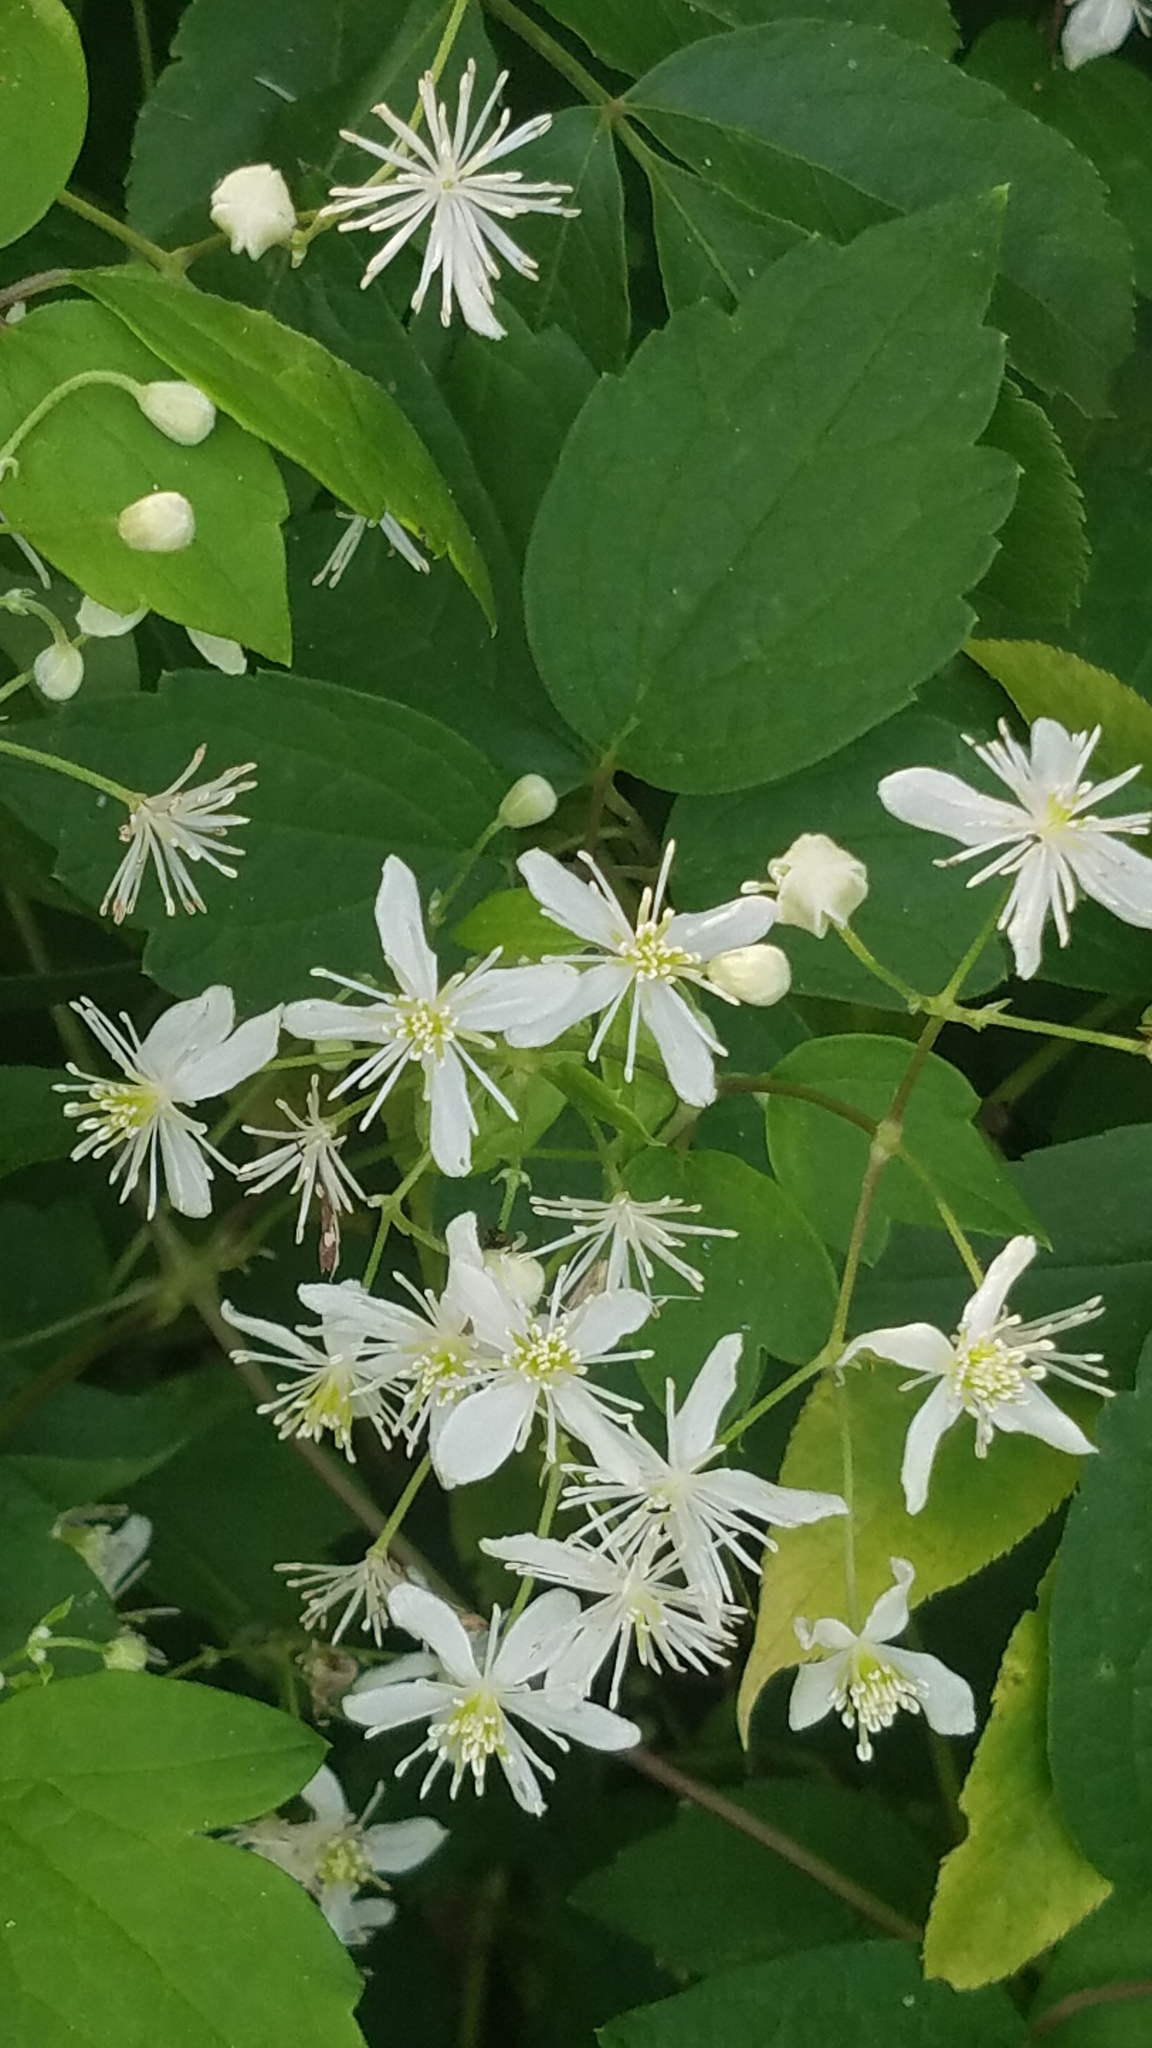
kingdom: Plantae
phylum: Tracheophyta
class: Magnoliopsida
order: Ranunculales
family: Ranunculaceae
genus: Clematis
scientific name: Clematis virginiana
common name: Virgin's-bower
